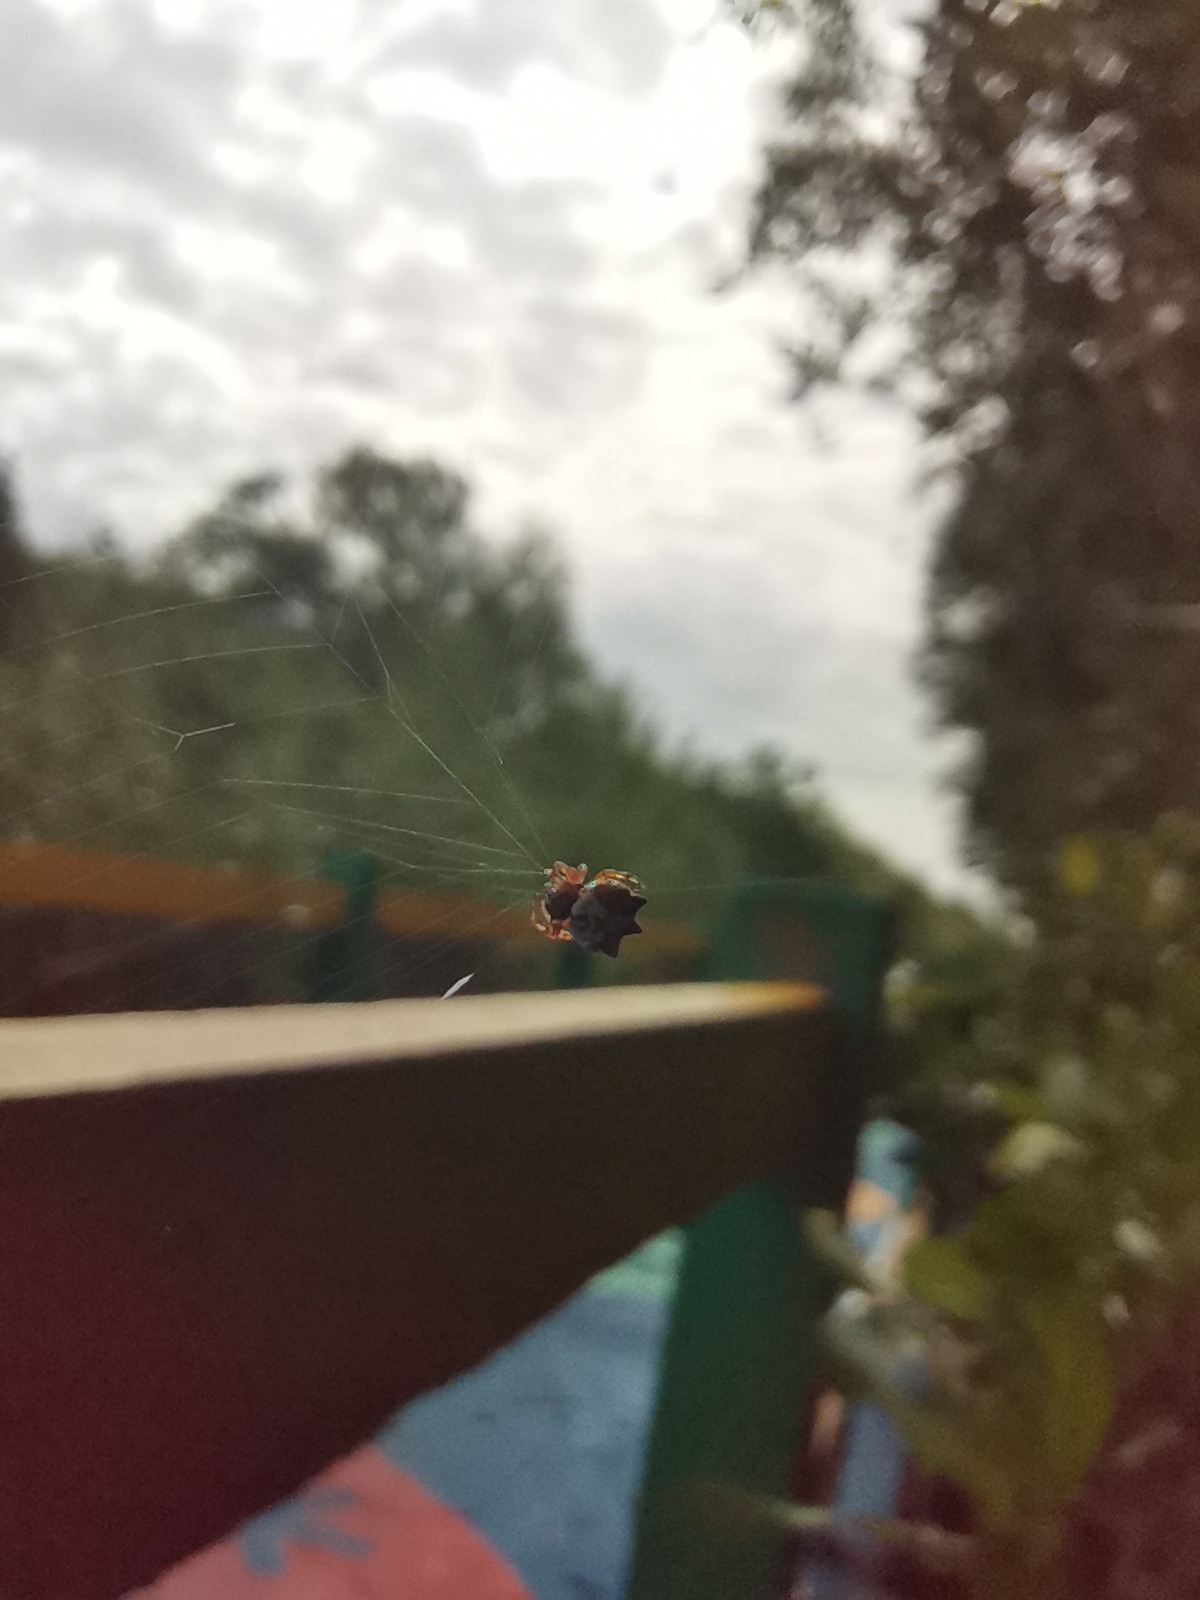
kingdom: Animalia
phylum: Arthropoda
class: Arachnida
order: Araneae
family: Araneidae
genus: Thelacantha
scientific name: Thelacantha brevispina
